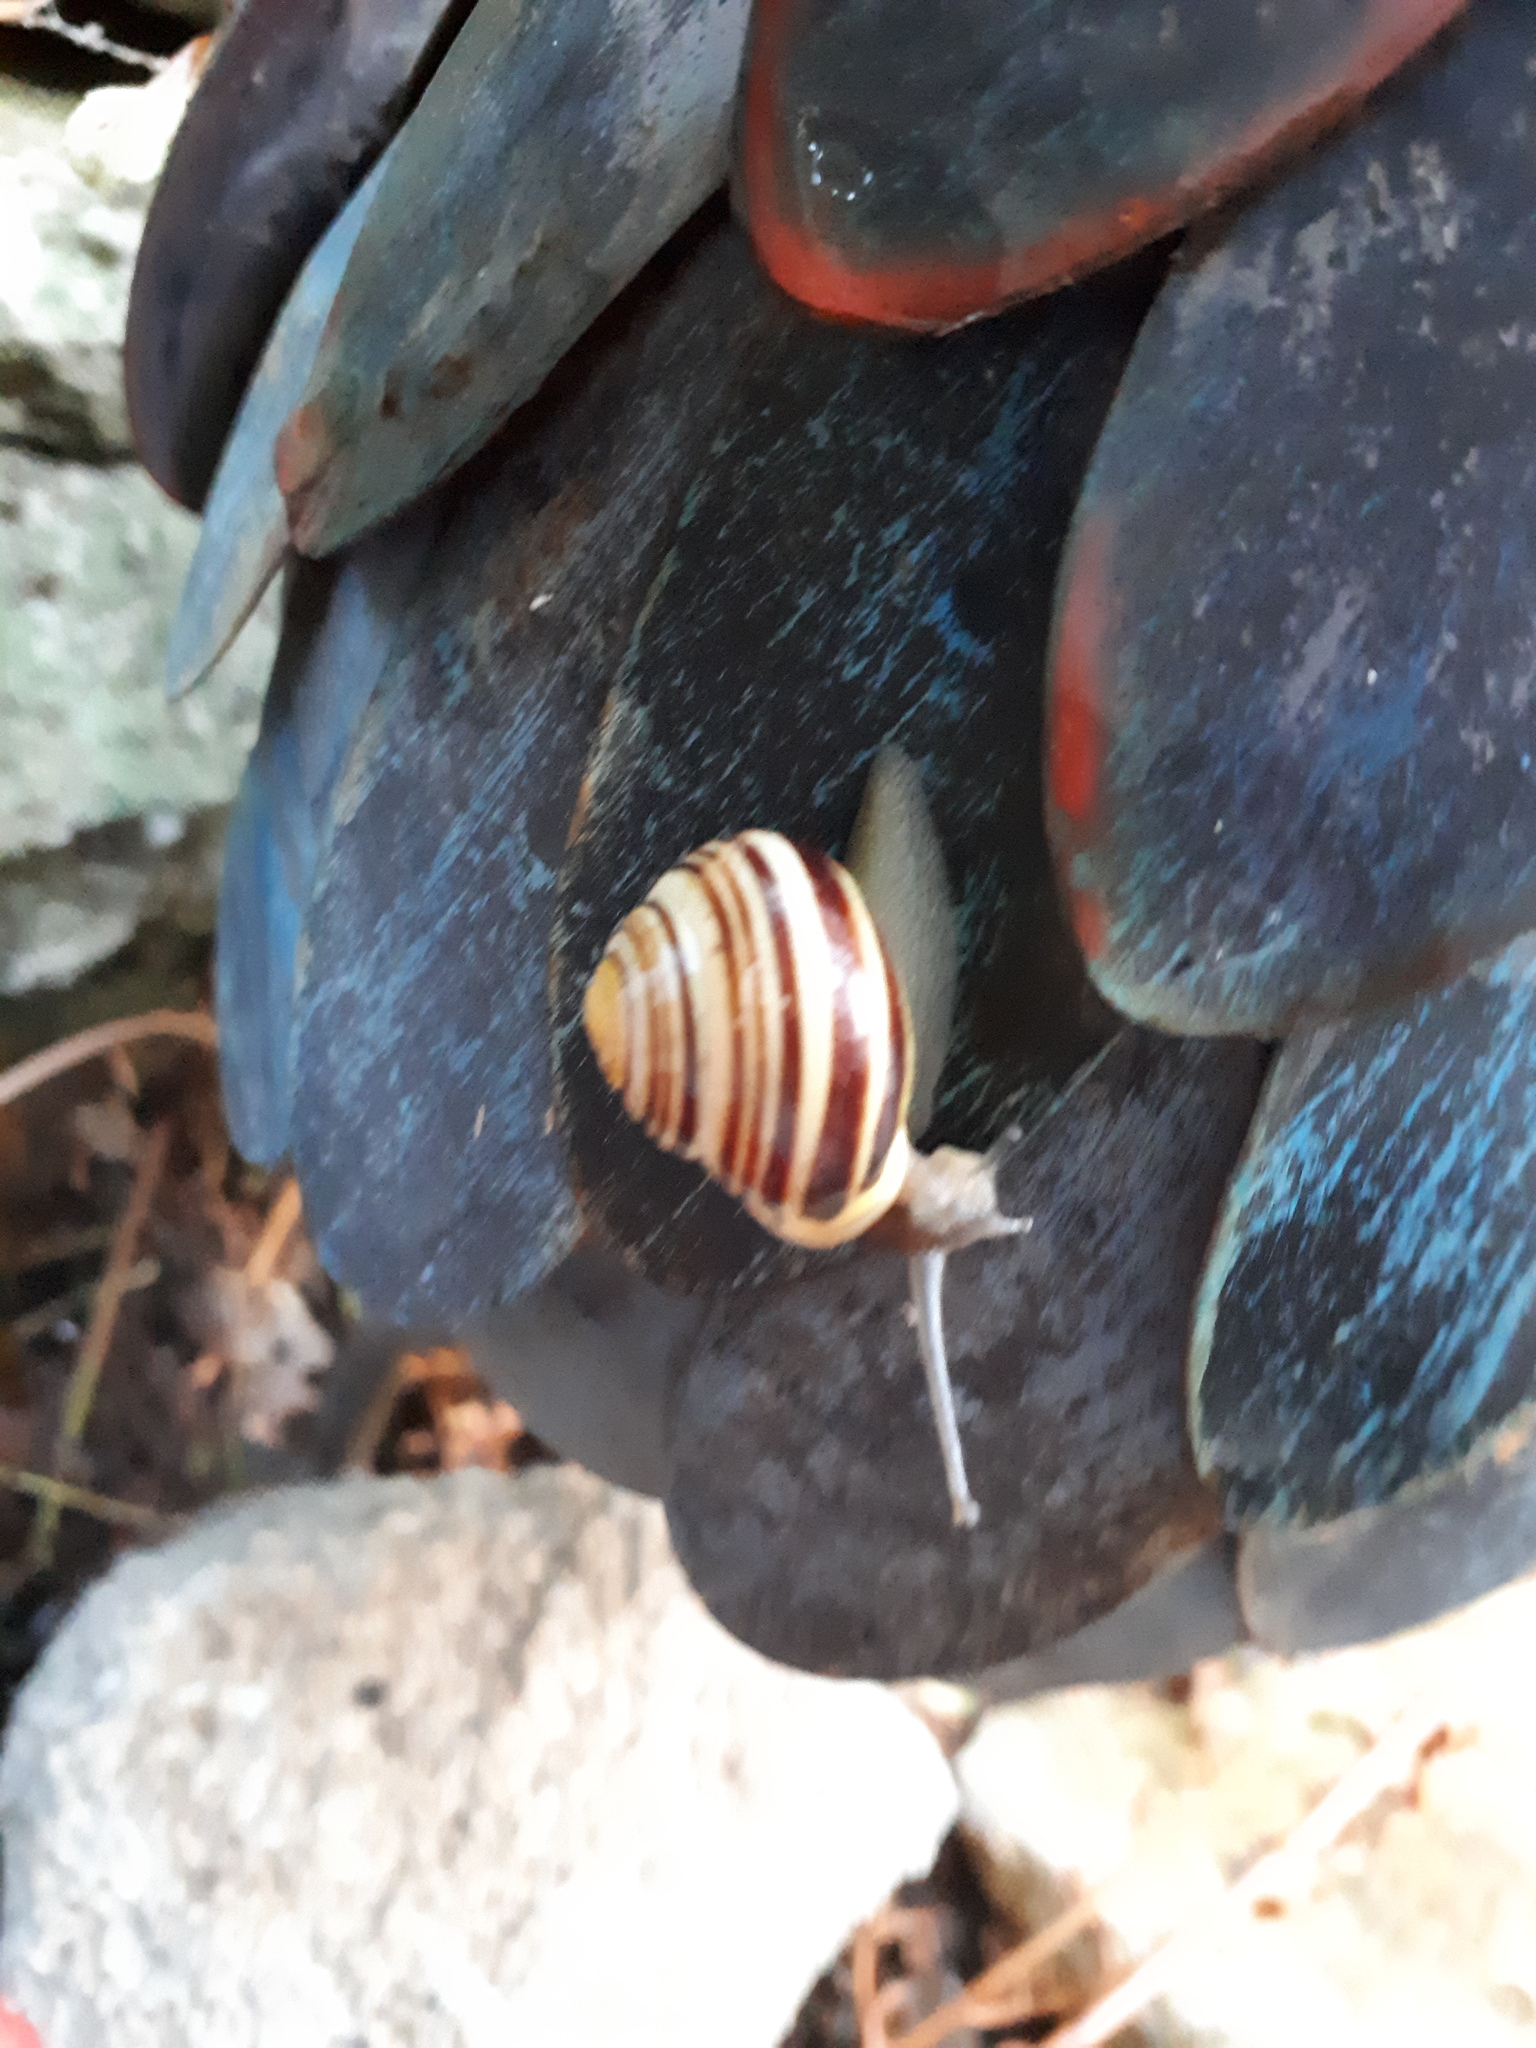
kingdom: Animalia
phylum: Mollusca
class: Gastropoda
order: Stylommatophora
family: Helicidae
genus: Cepaea
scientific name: Cepaea hortensis
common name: White-lip gardensnail
